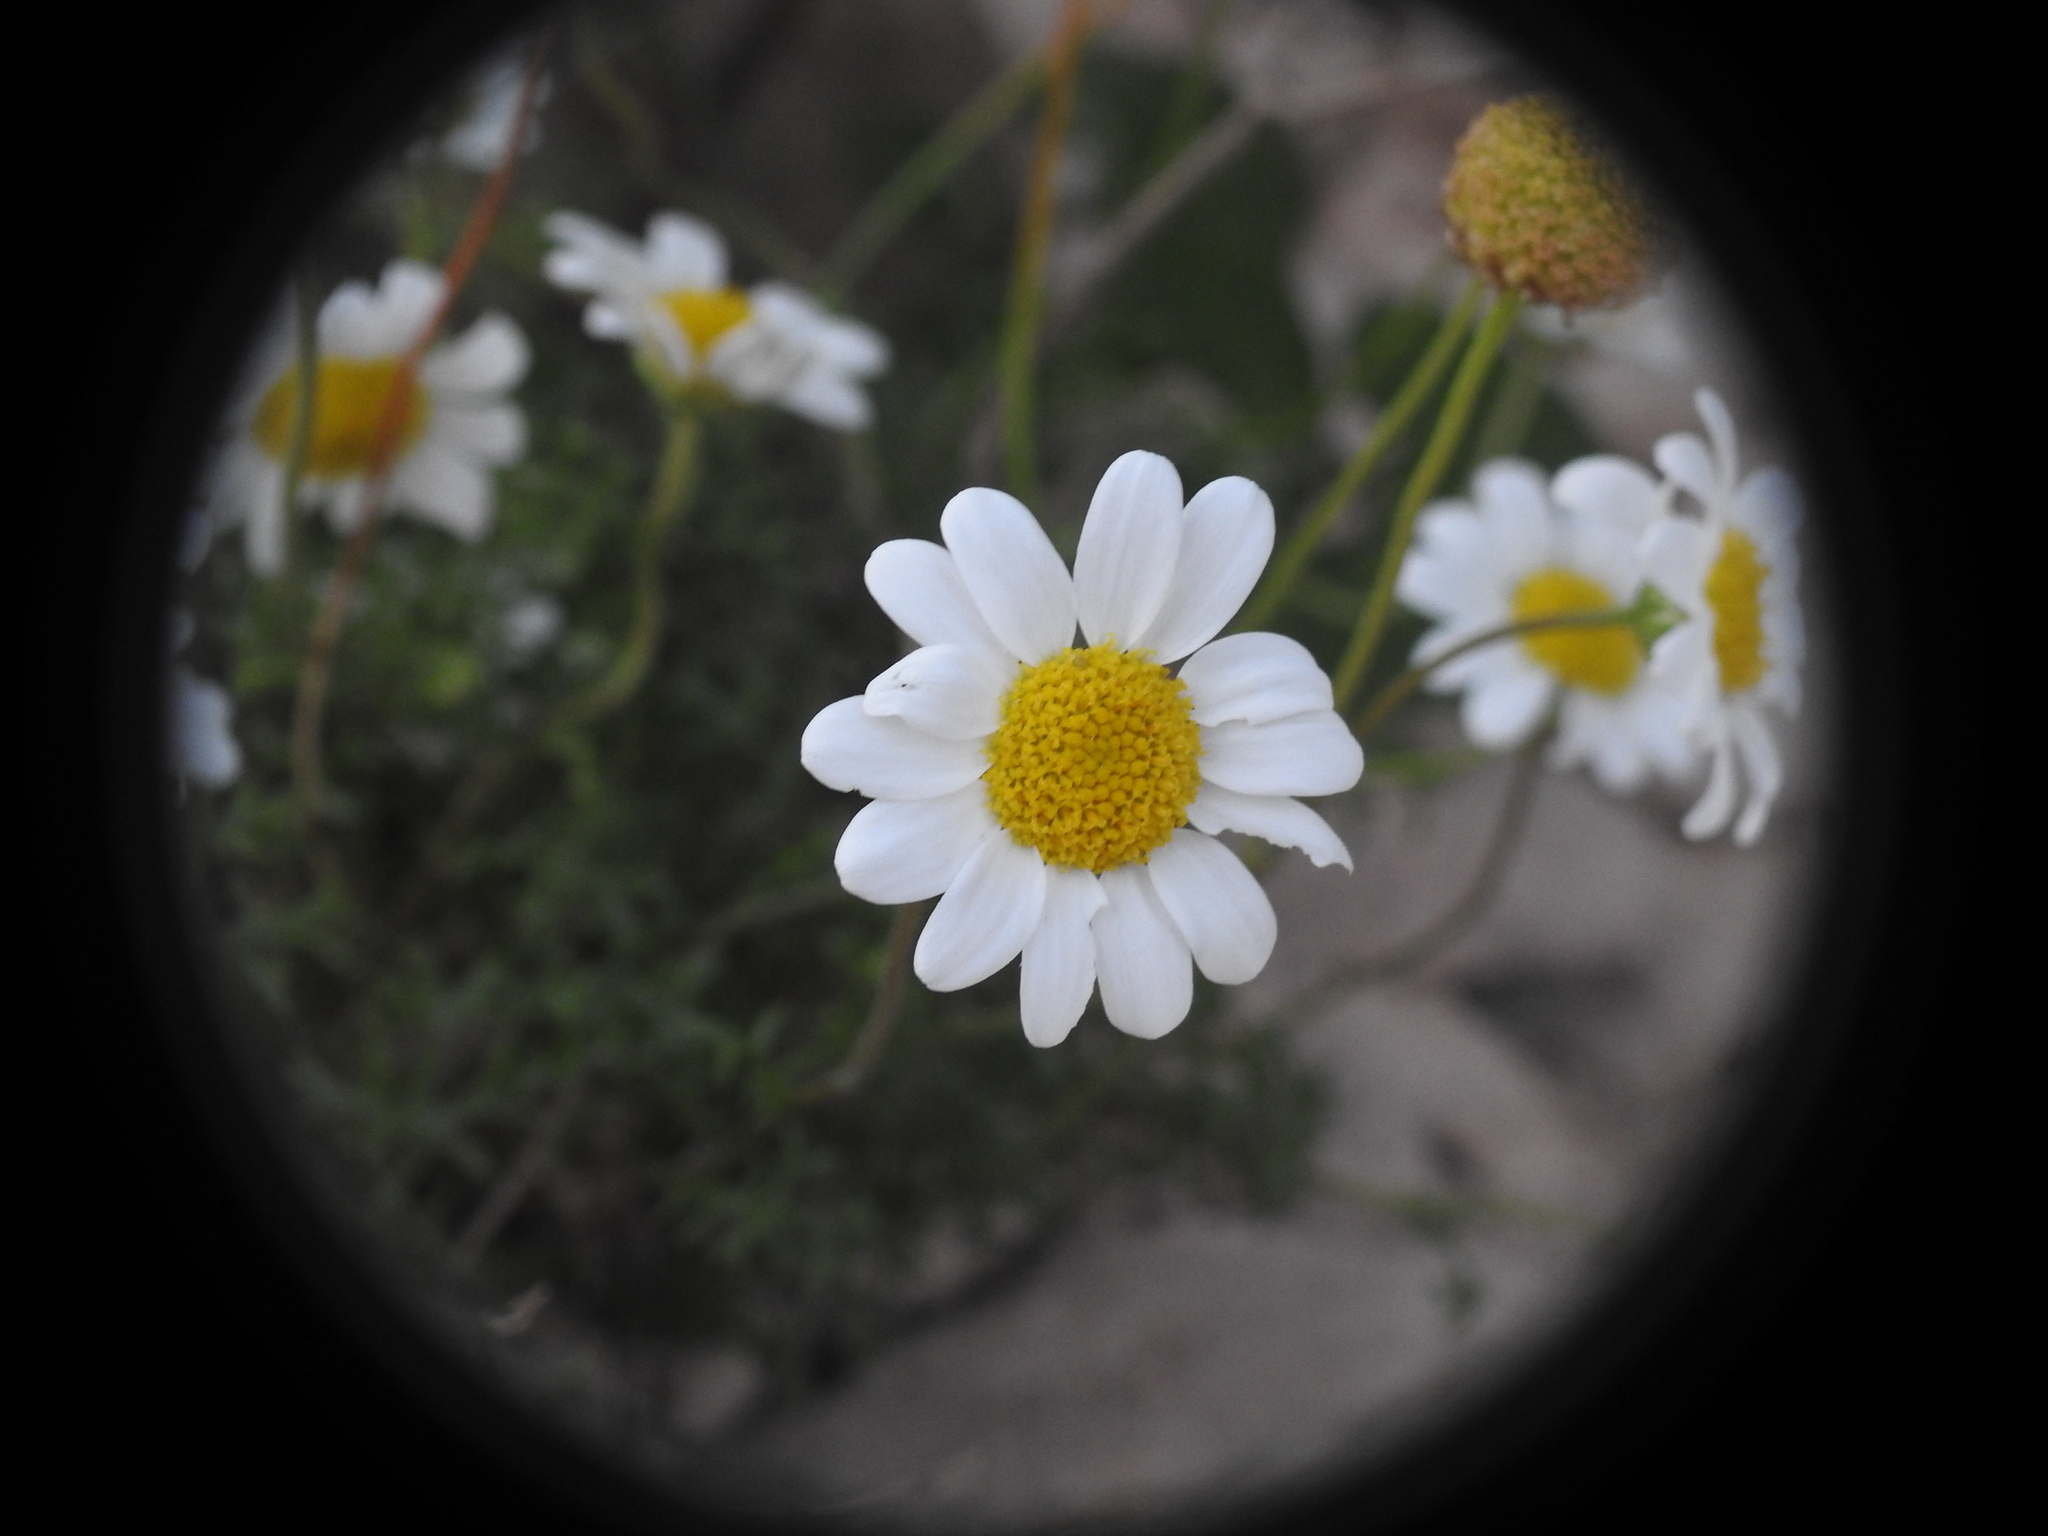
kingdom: Plantae
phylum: Tracheophyta
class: Magnoliopsida
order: Asterales
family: Asteraceae
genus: Anthemis
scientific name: Anthemis chia
